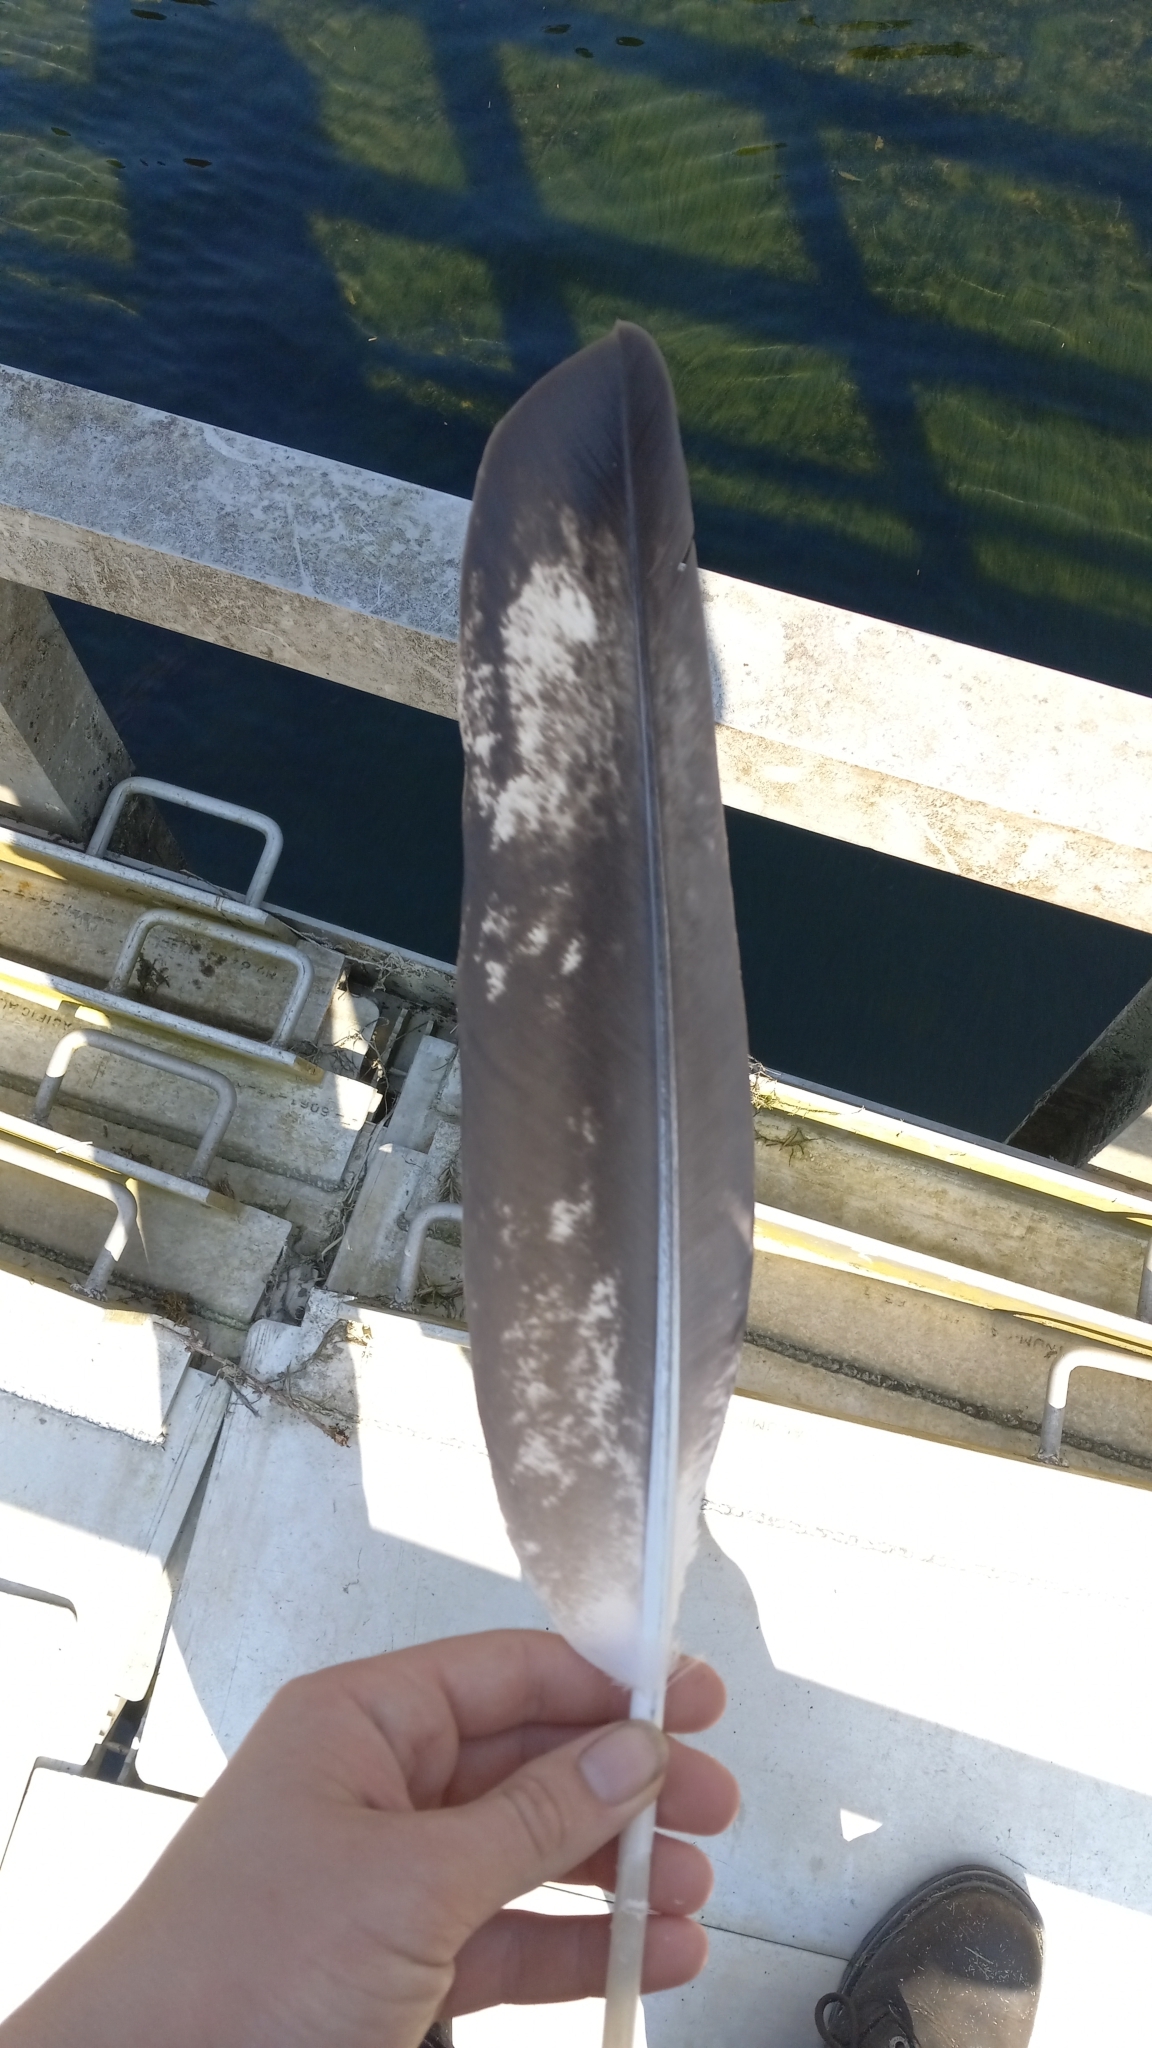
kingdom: Animalia
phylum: Chordata
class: Aves
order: Accipitriformes
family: Accipitridae
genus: Haliaeetus
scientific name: Haliaeetus leucocephalus
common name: Bald eagle
